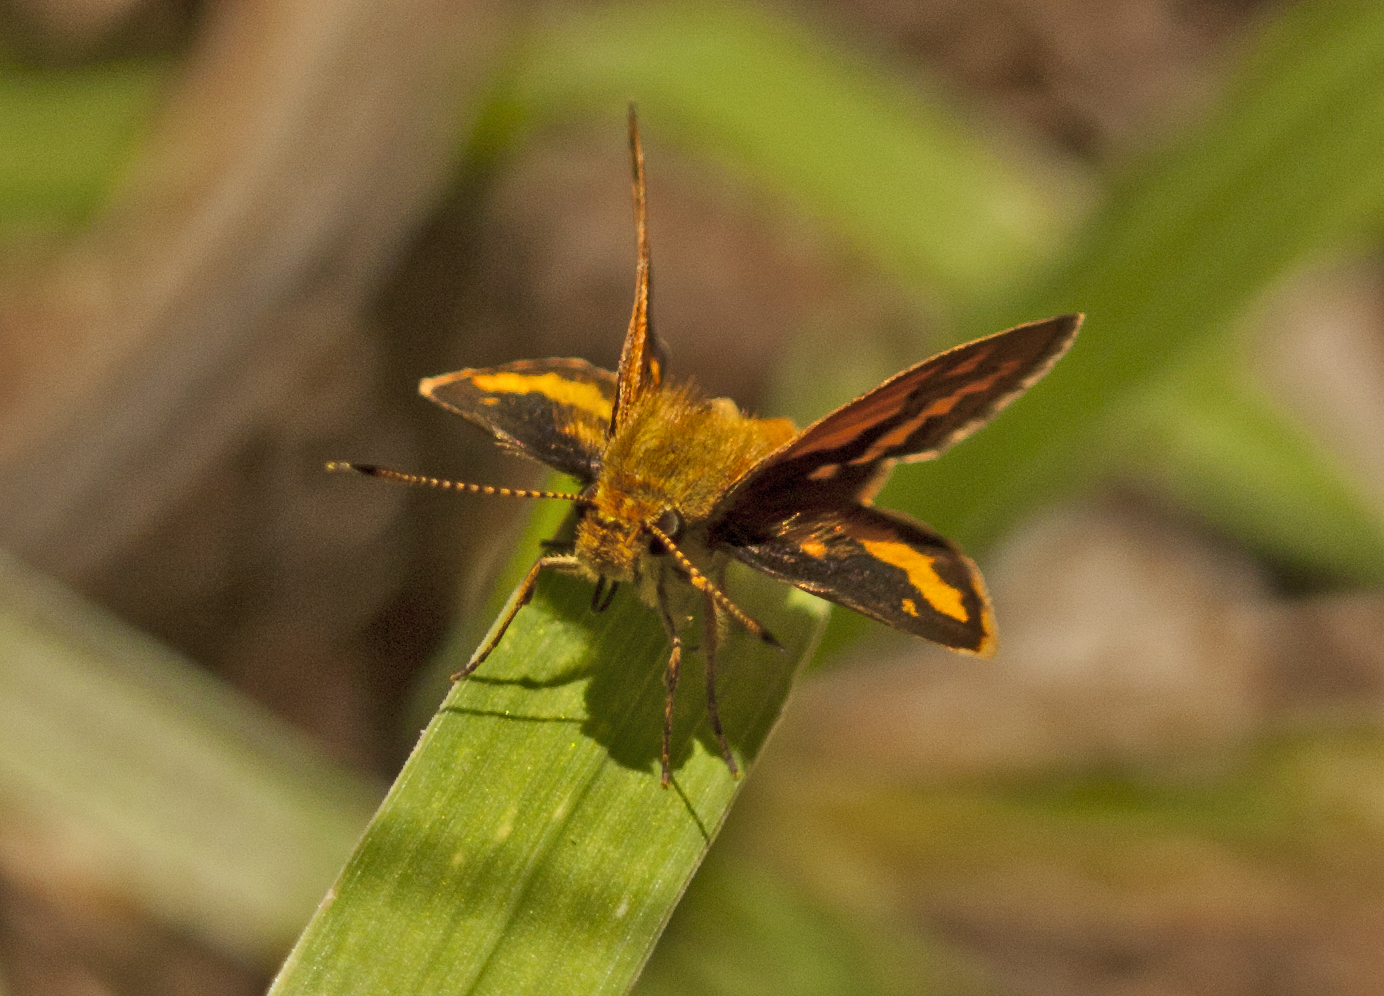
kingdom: Animalia
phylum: Arthropoda
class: Insecta
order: Lepidoptera
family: Hesperiidae
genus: Suniana
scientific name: Suniana sunias
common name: Wide-brand grass-dart
